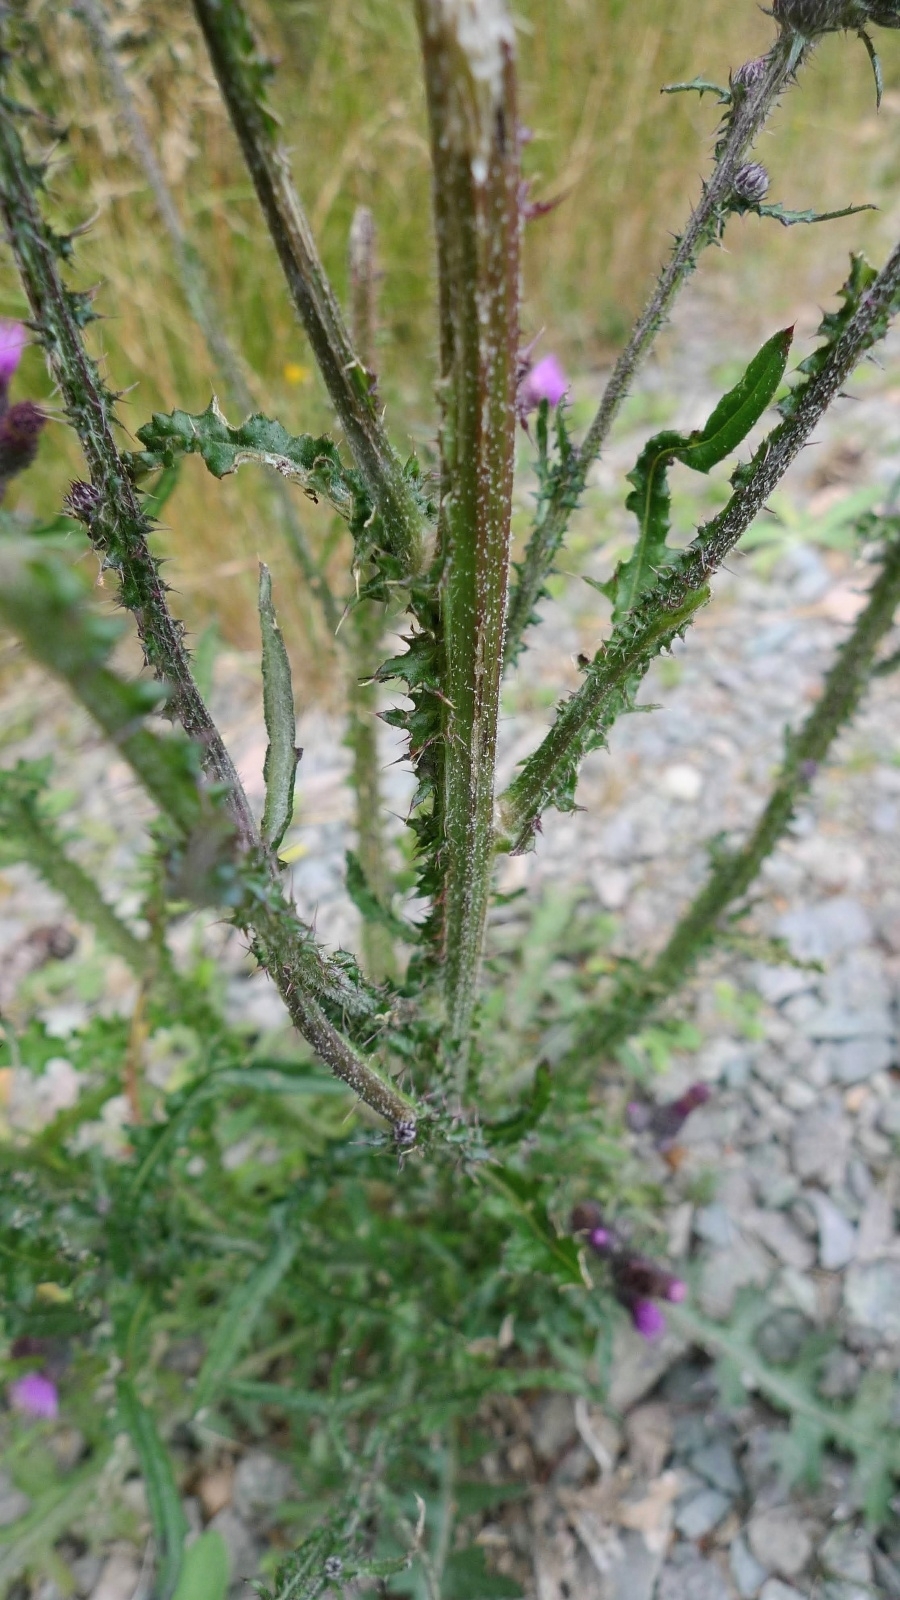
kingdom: Plantae
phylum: Tracheophyta
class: Magnoliopsida
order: Asterales
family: Asteraceae
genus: Cirsium
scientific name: Cirsium palustre
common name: Marsh thistle
